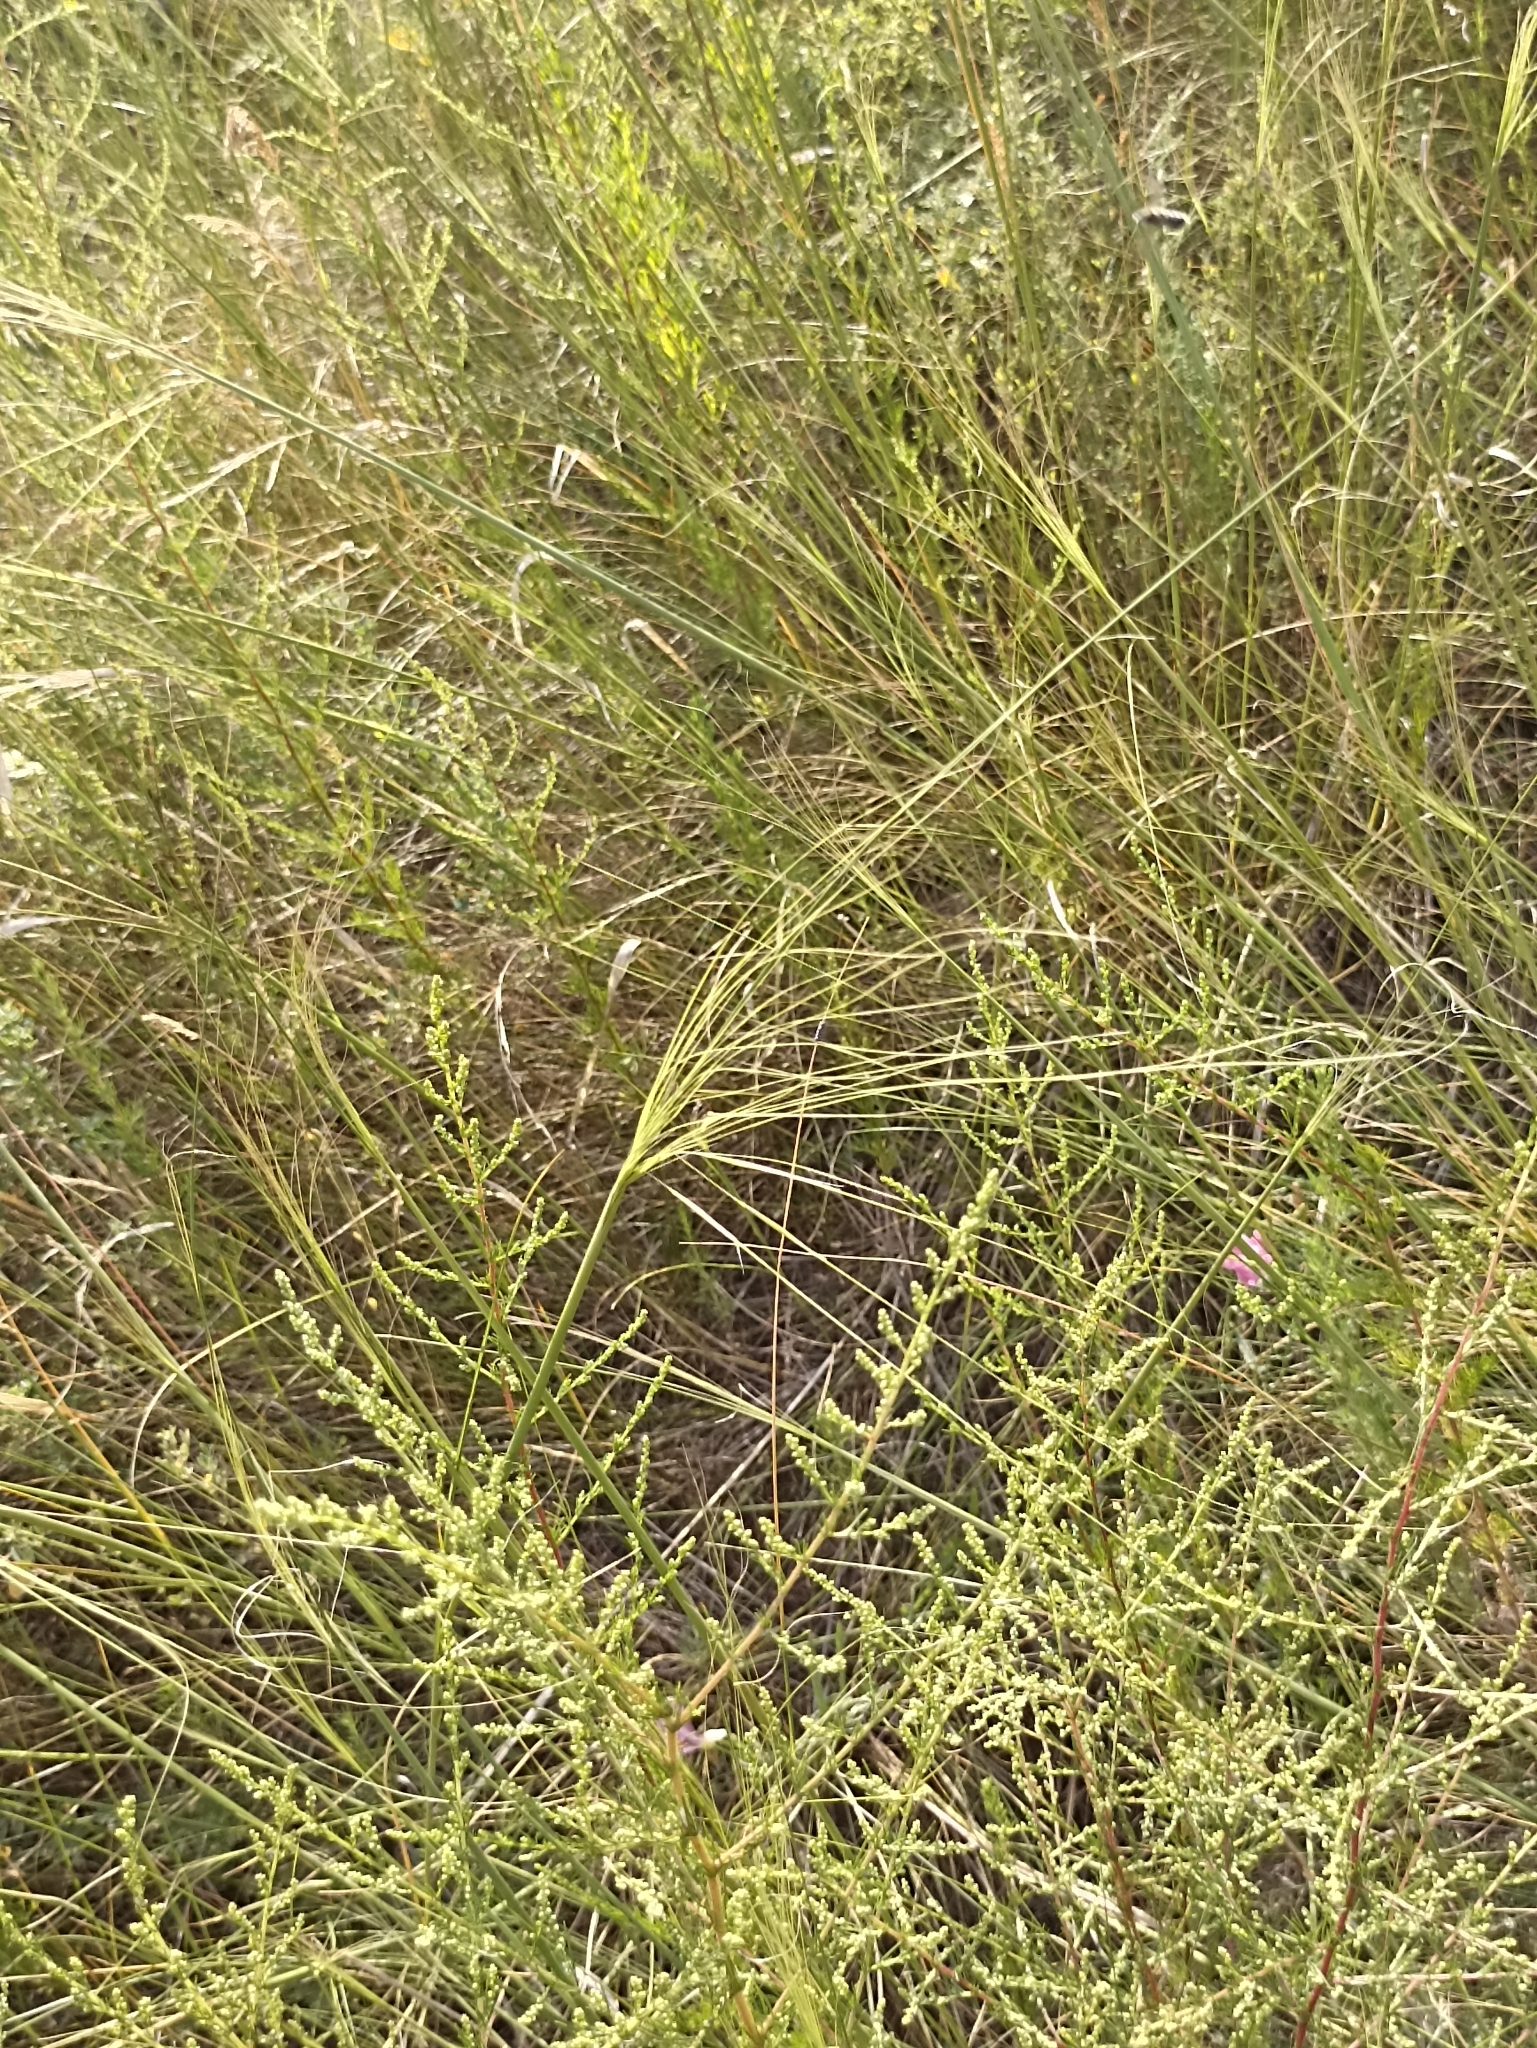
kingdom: Plantae
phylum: Tracheophyta
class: Liliopsida
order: Poales
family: Poaceae
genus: Stipa
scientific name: Stipa capillata
